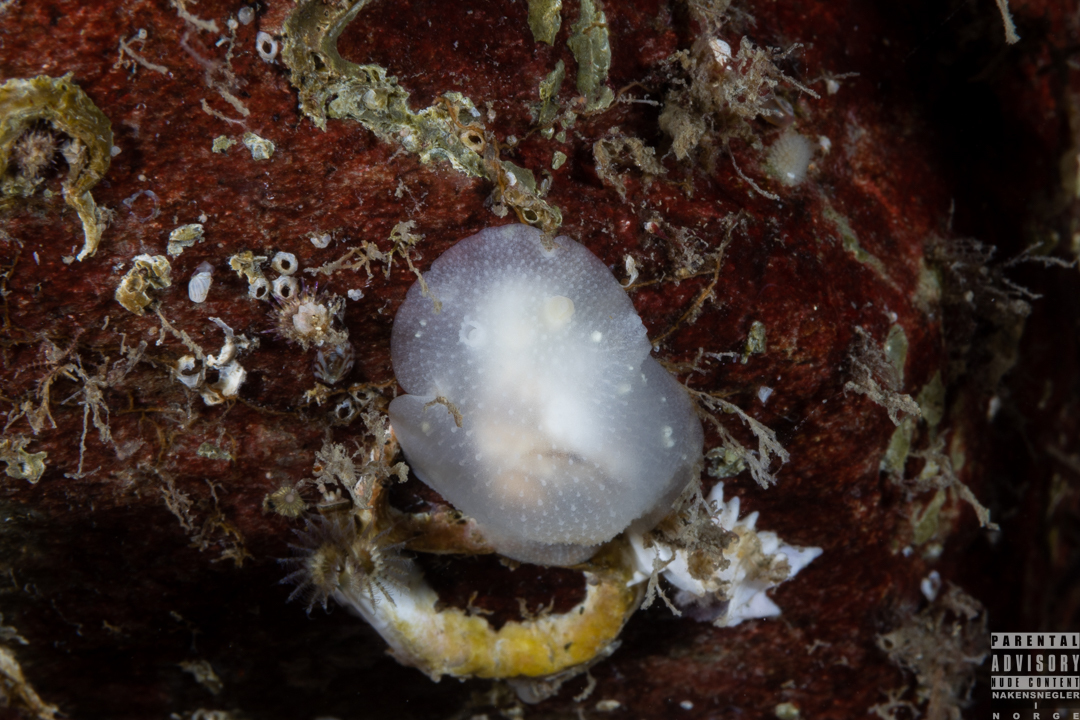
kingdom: Animalia
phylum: Mollusca
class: Gastropoda
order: Nudibranchia
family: Cadlinidae
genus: Cadlina
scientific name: Cadlina laevis
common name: White atlantic cadlina
